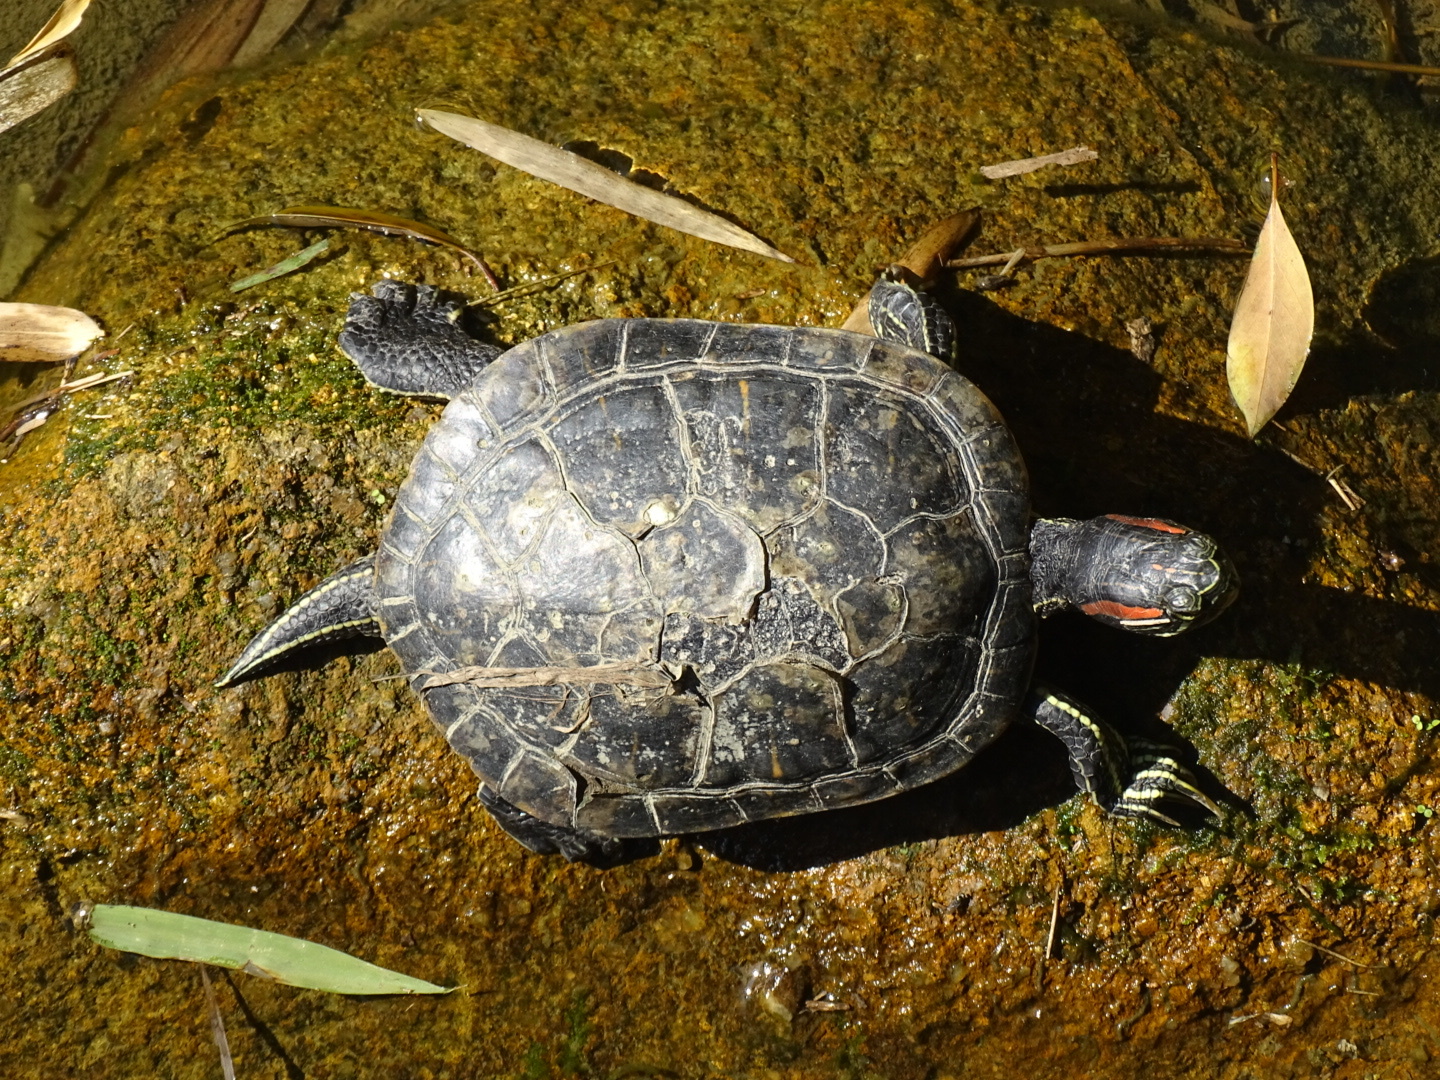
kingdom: Animalia
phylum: Chordata
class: Testudines
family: Emydidae
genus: Trachemys
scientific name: Trachemys scripta
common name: Slider
